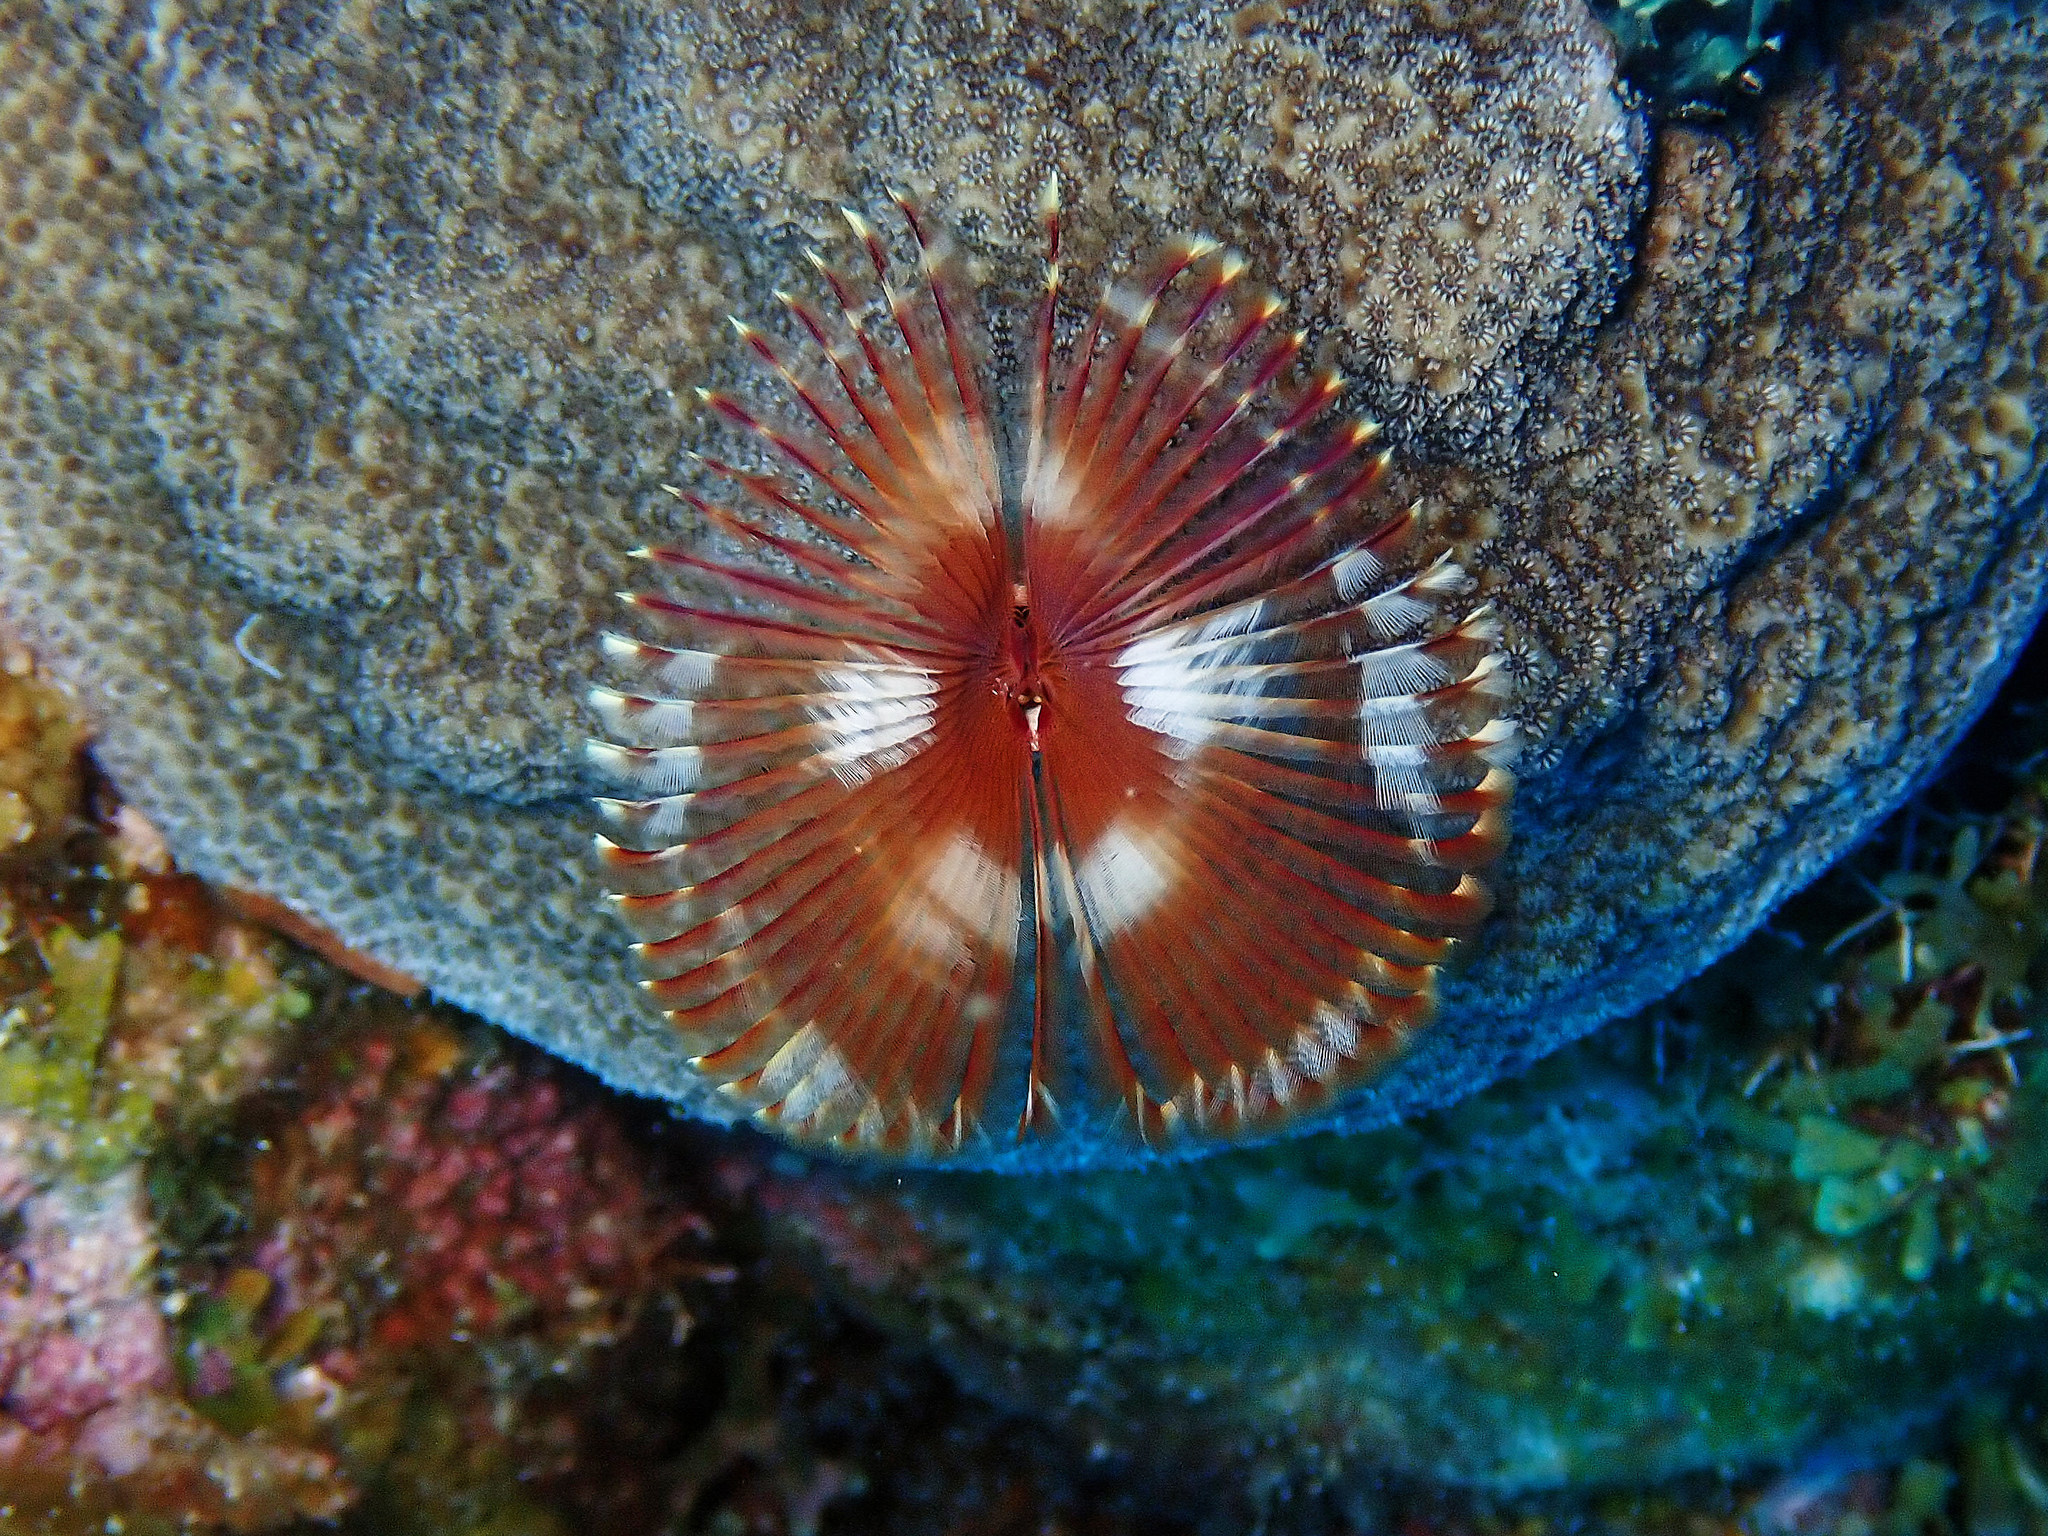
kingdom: Animalia
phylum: Annelida
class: Polychaeta
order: Sabellida
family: Sabellidae
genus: Anamobaea
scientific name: Anamobaea orstedii
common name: Split-crown feather duster
